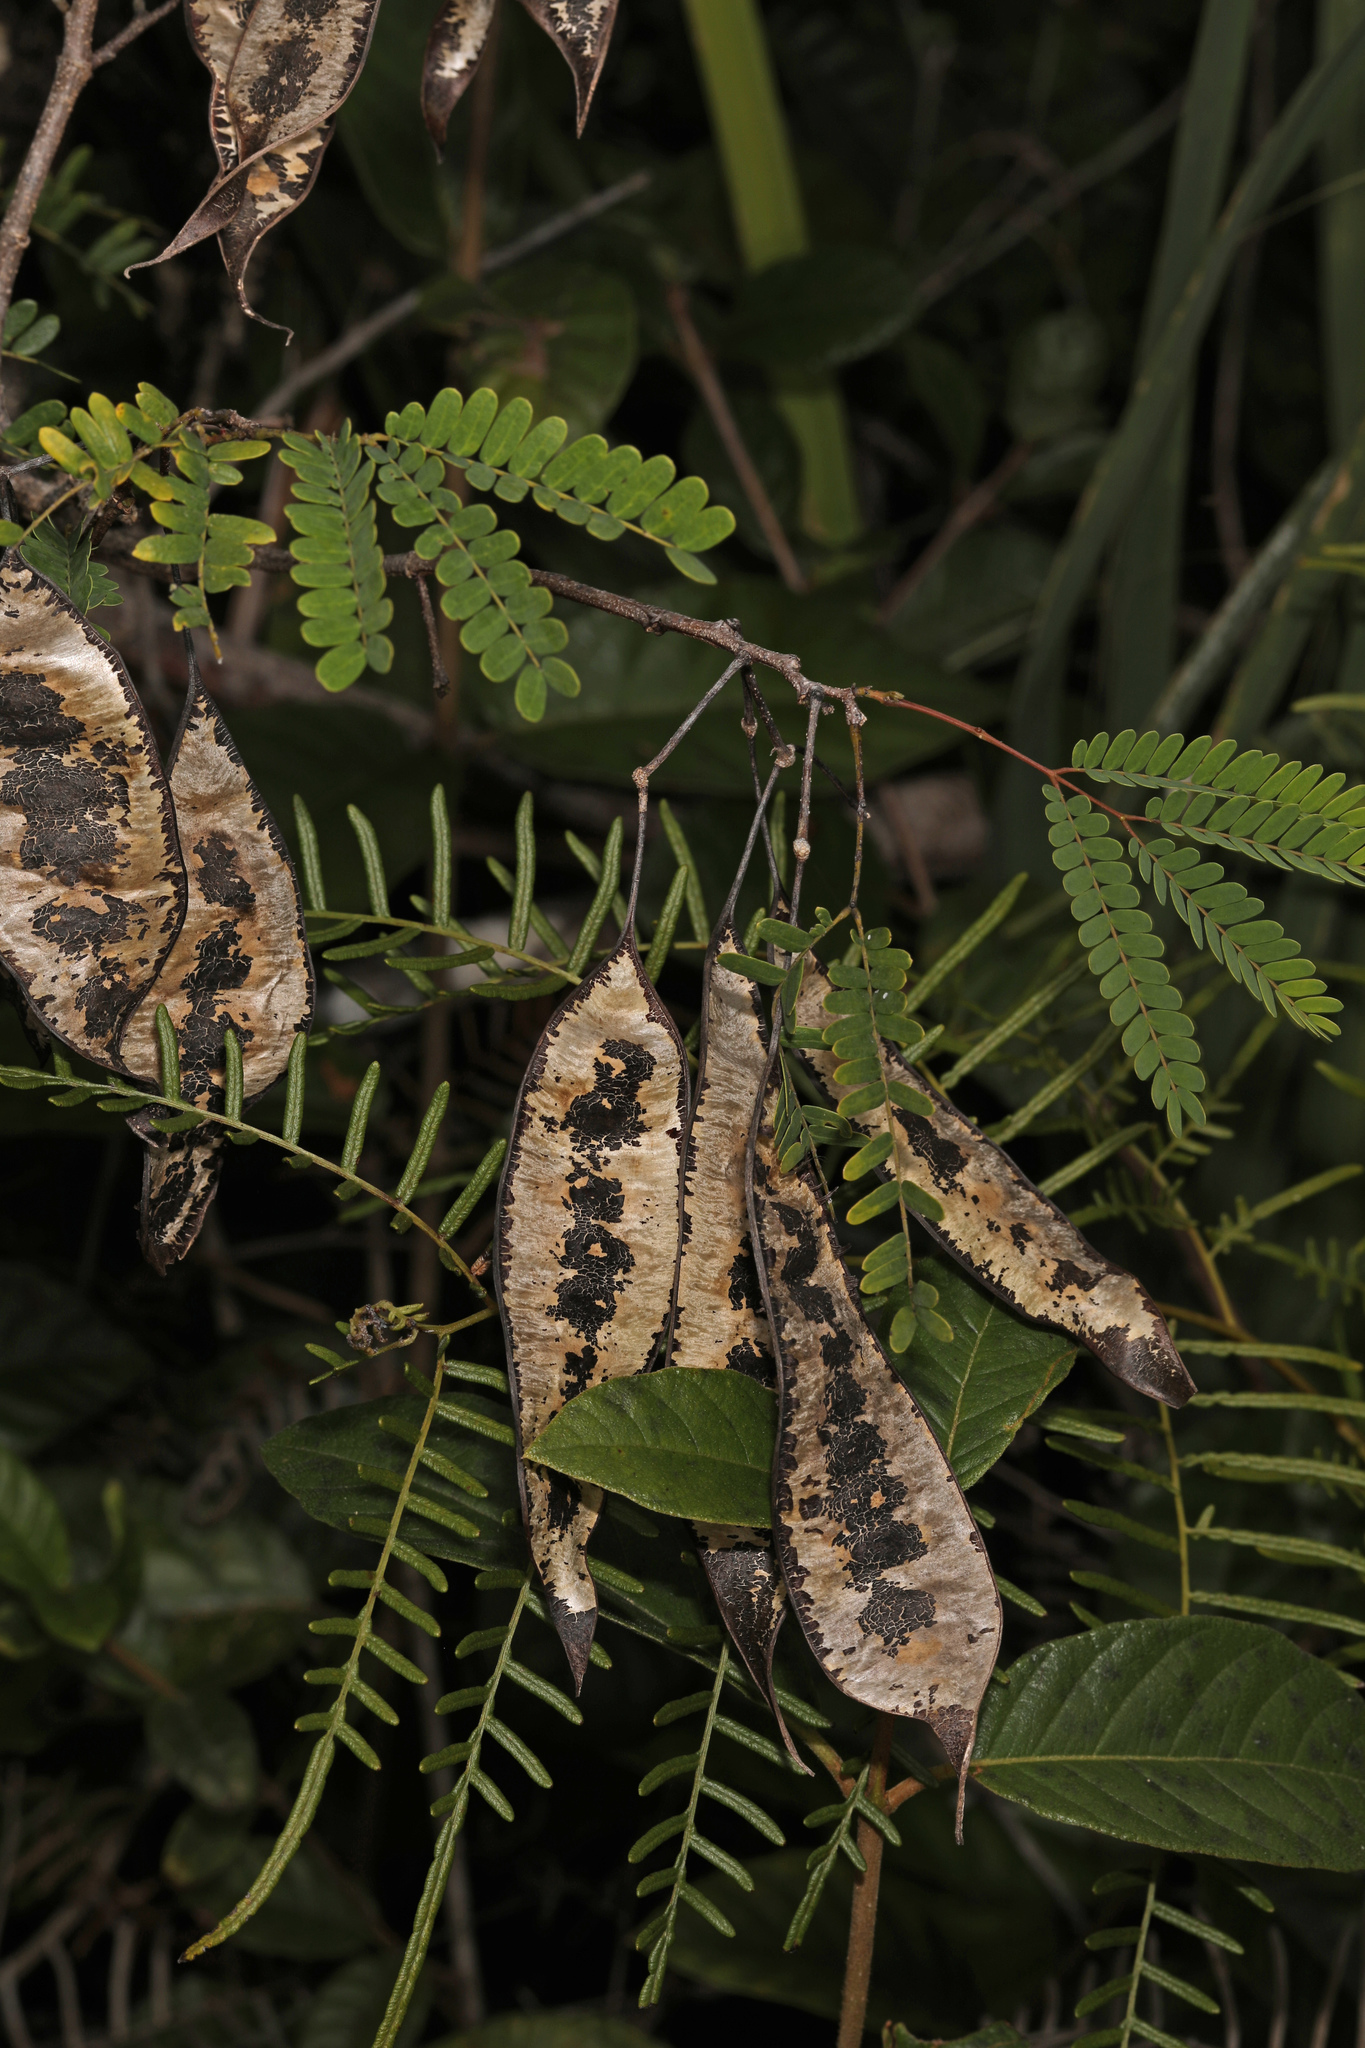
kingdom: Plantae
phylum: Tracheophyta
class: Magnoliopsida
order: Fabales
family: Fabaceae
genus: Lysiloma
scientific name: Lysiloma latisiliquum
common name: Wild tamarind
